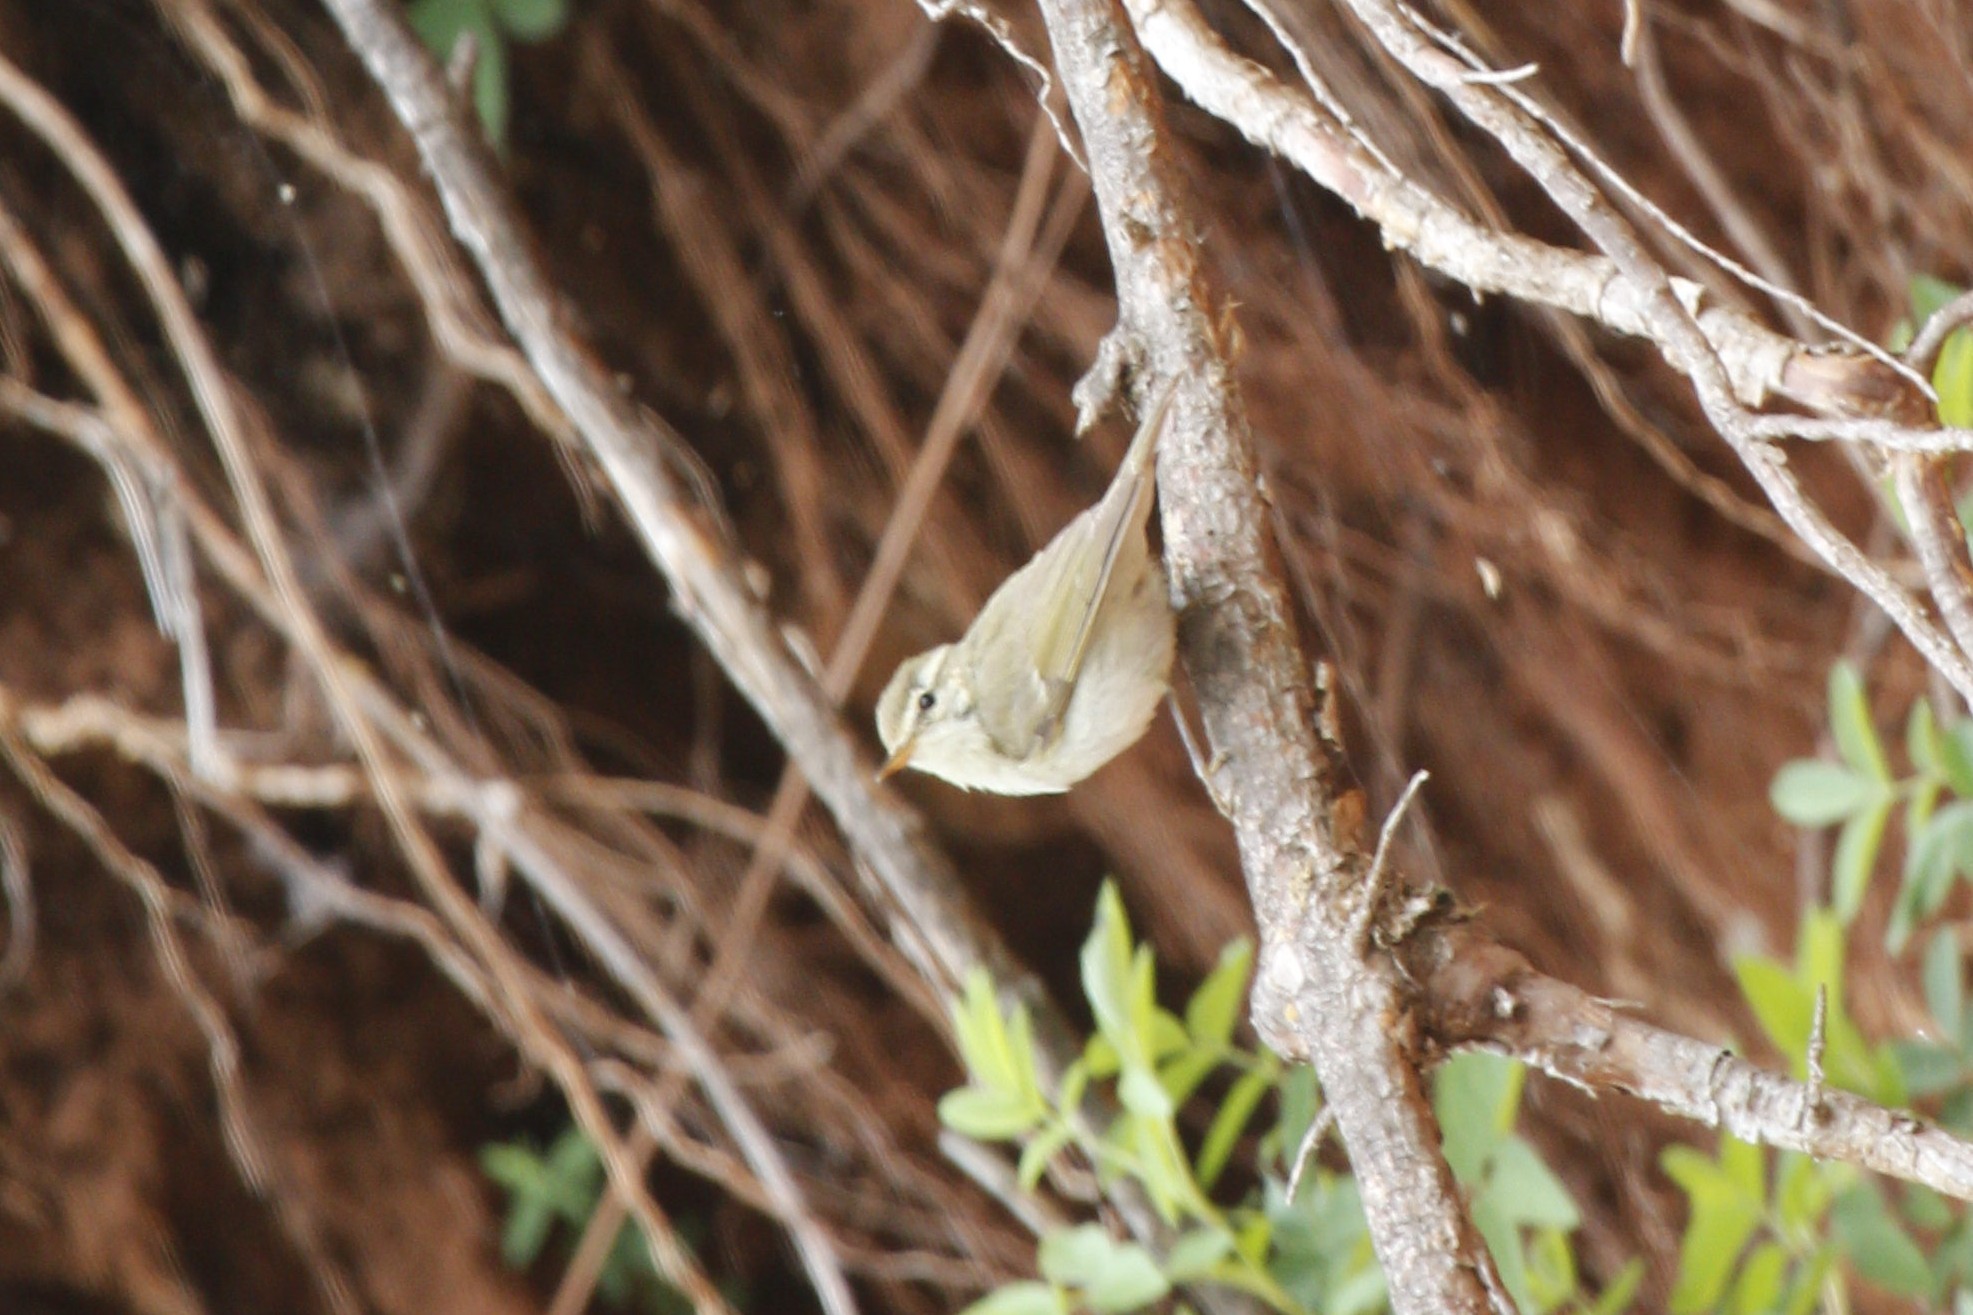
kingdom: Animalia
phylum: Chordata
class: Aves
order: Passeriformes
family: Phylloscopidae
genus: Phylloscopus
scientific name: Phylloscopus trochiloides
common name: Greenish warbler
